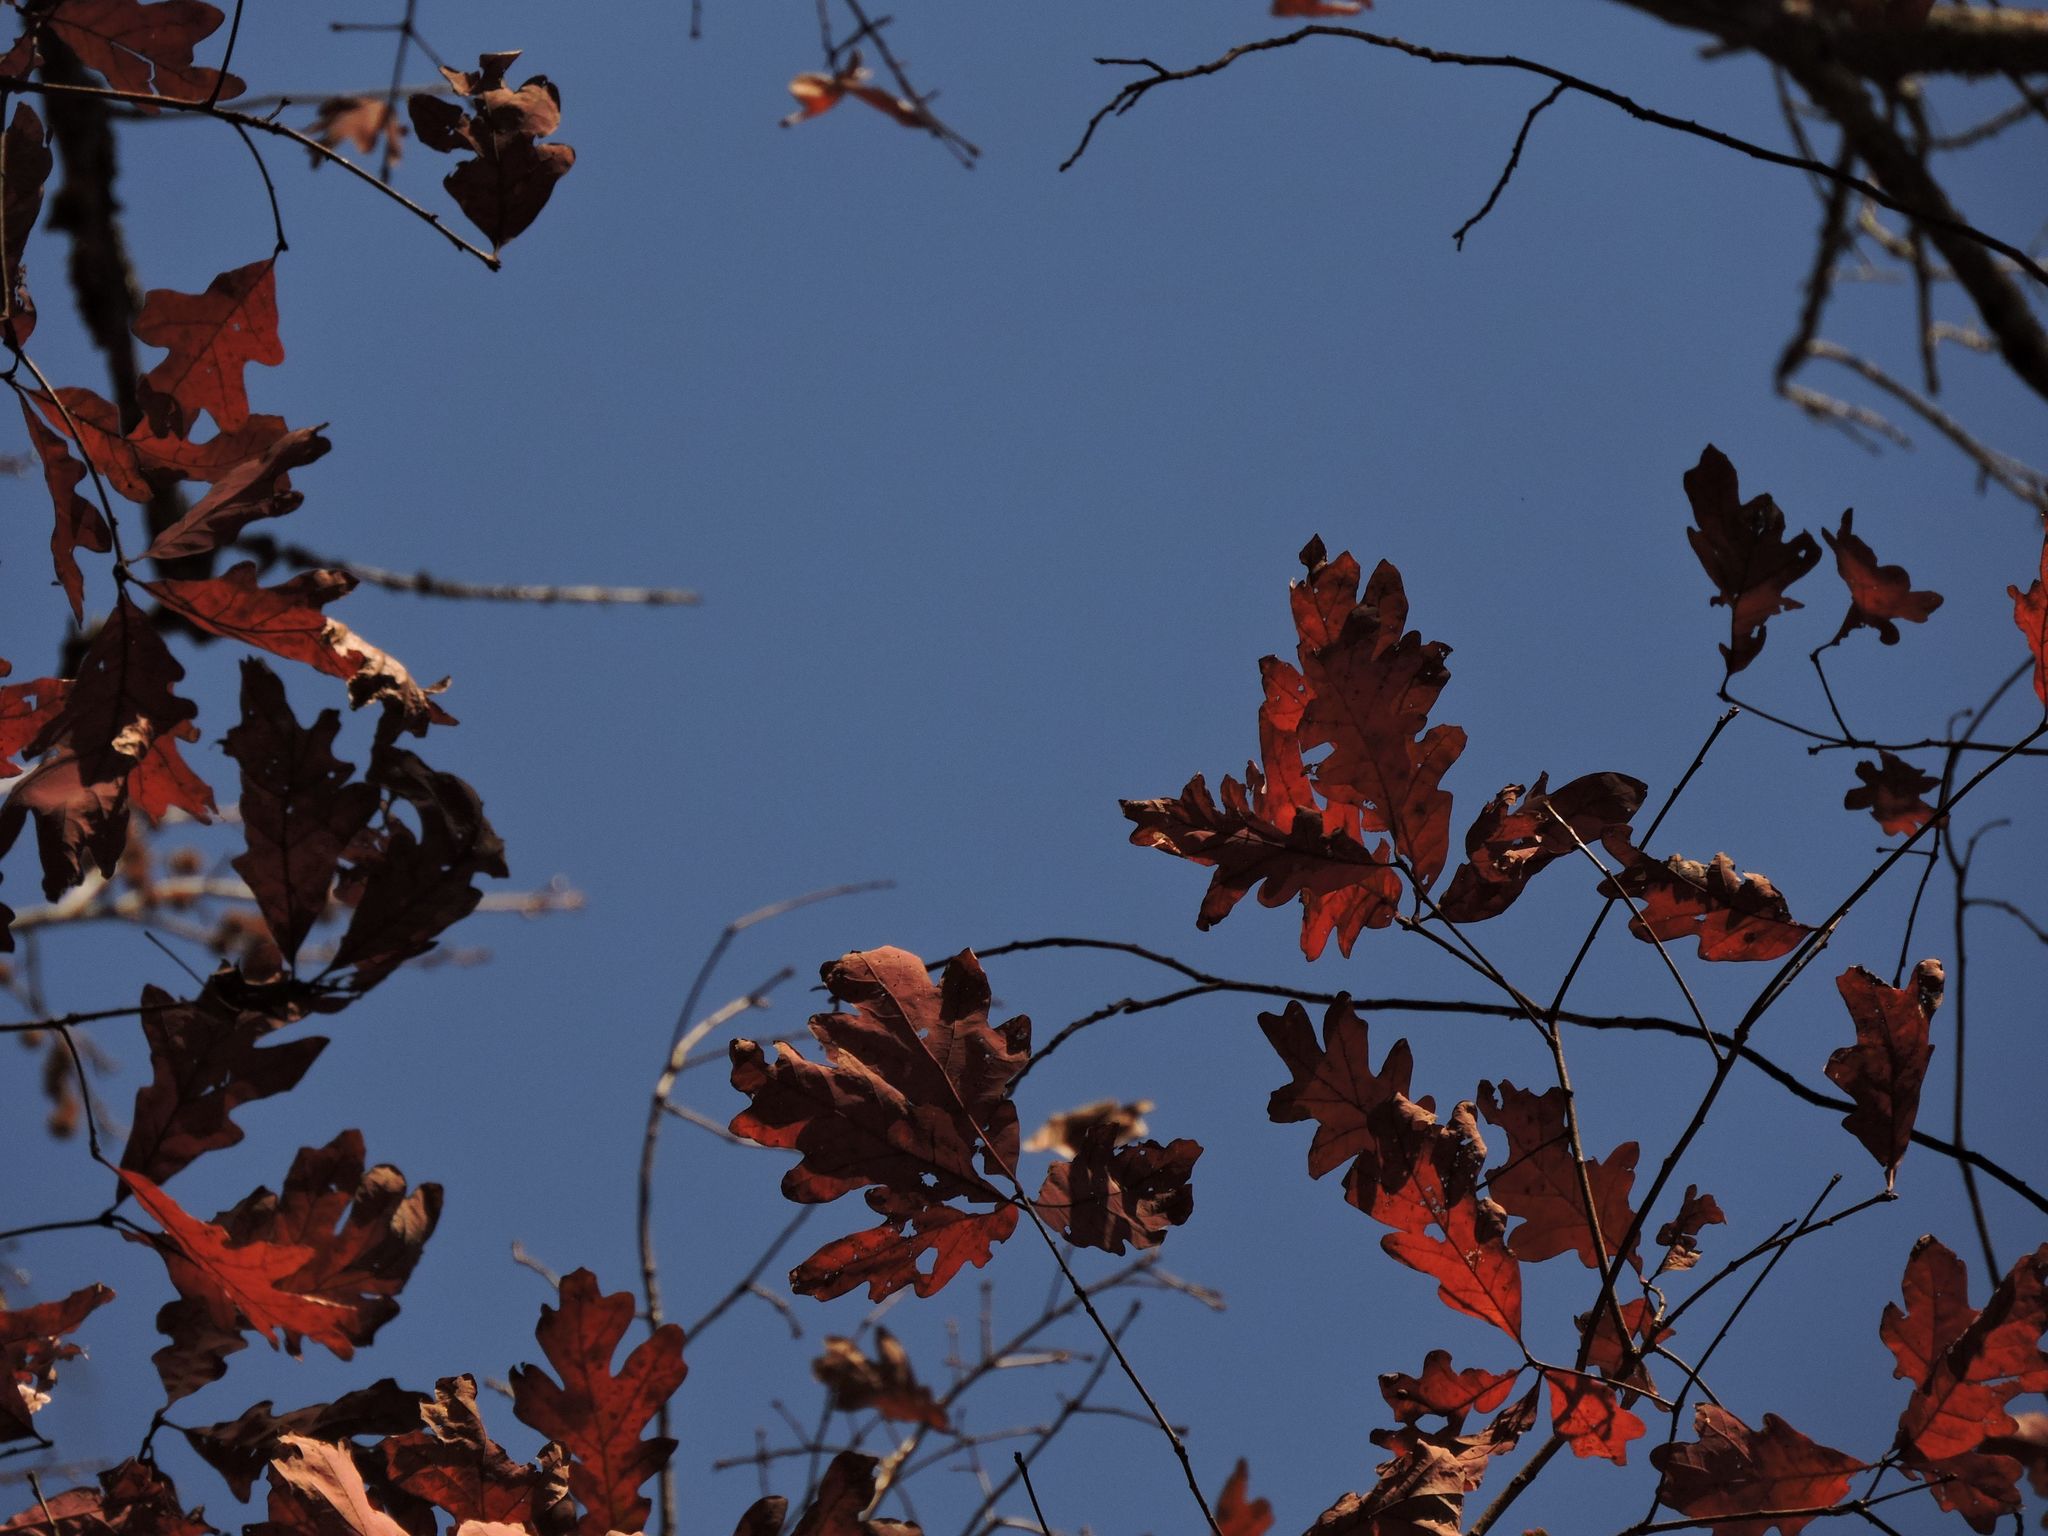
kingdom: Plantae
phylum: Tracheophyta
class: Magnoliopsida
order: Fagales
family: Fagaceae
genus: Quercus
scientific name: Quercus alba
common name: White oak
